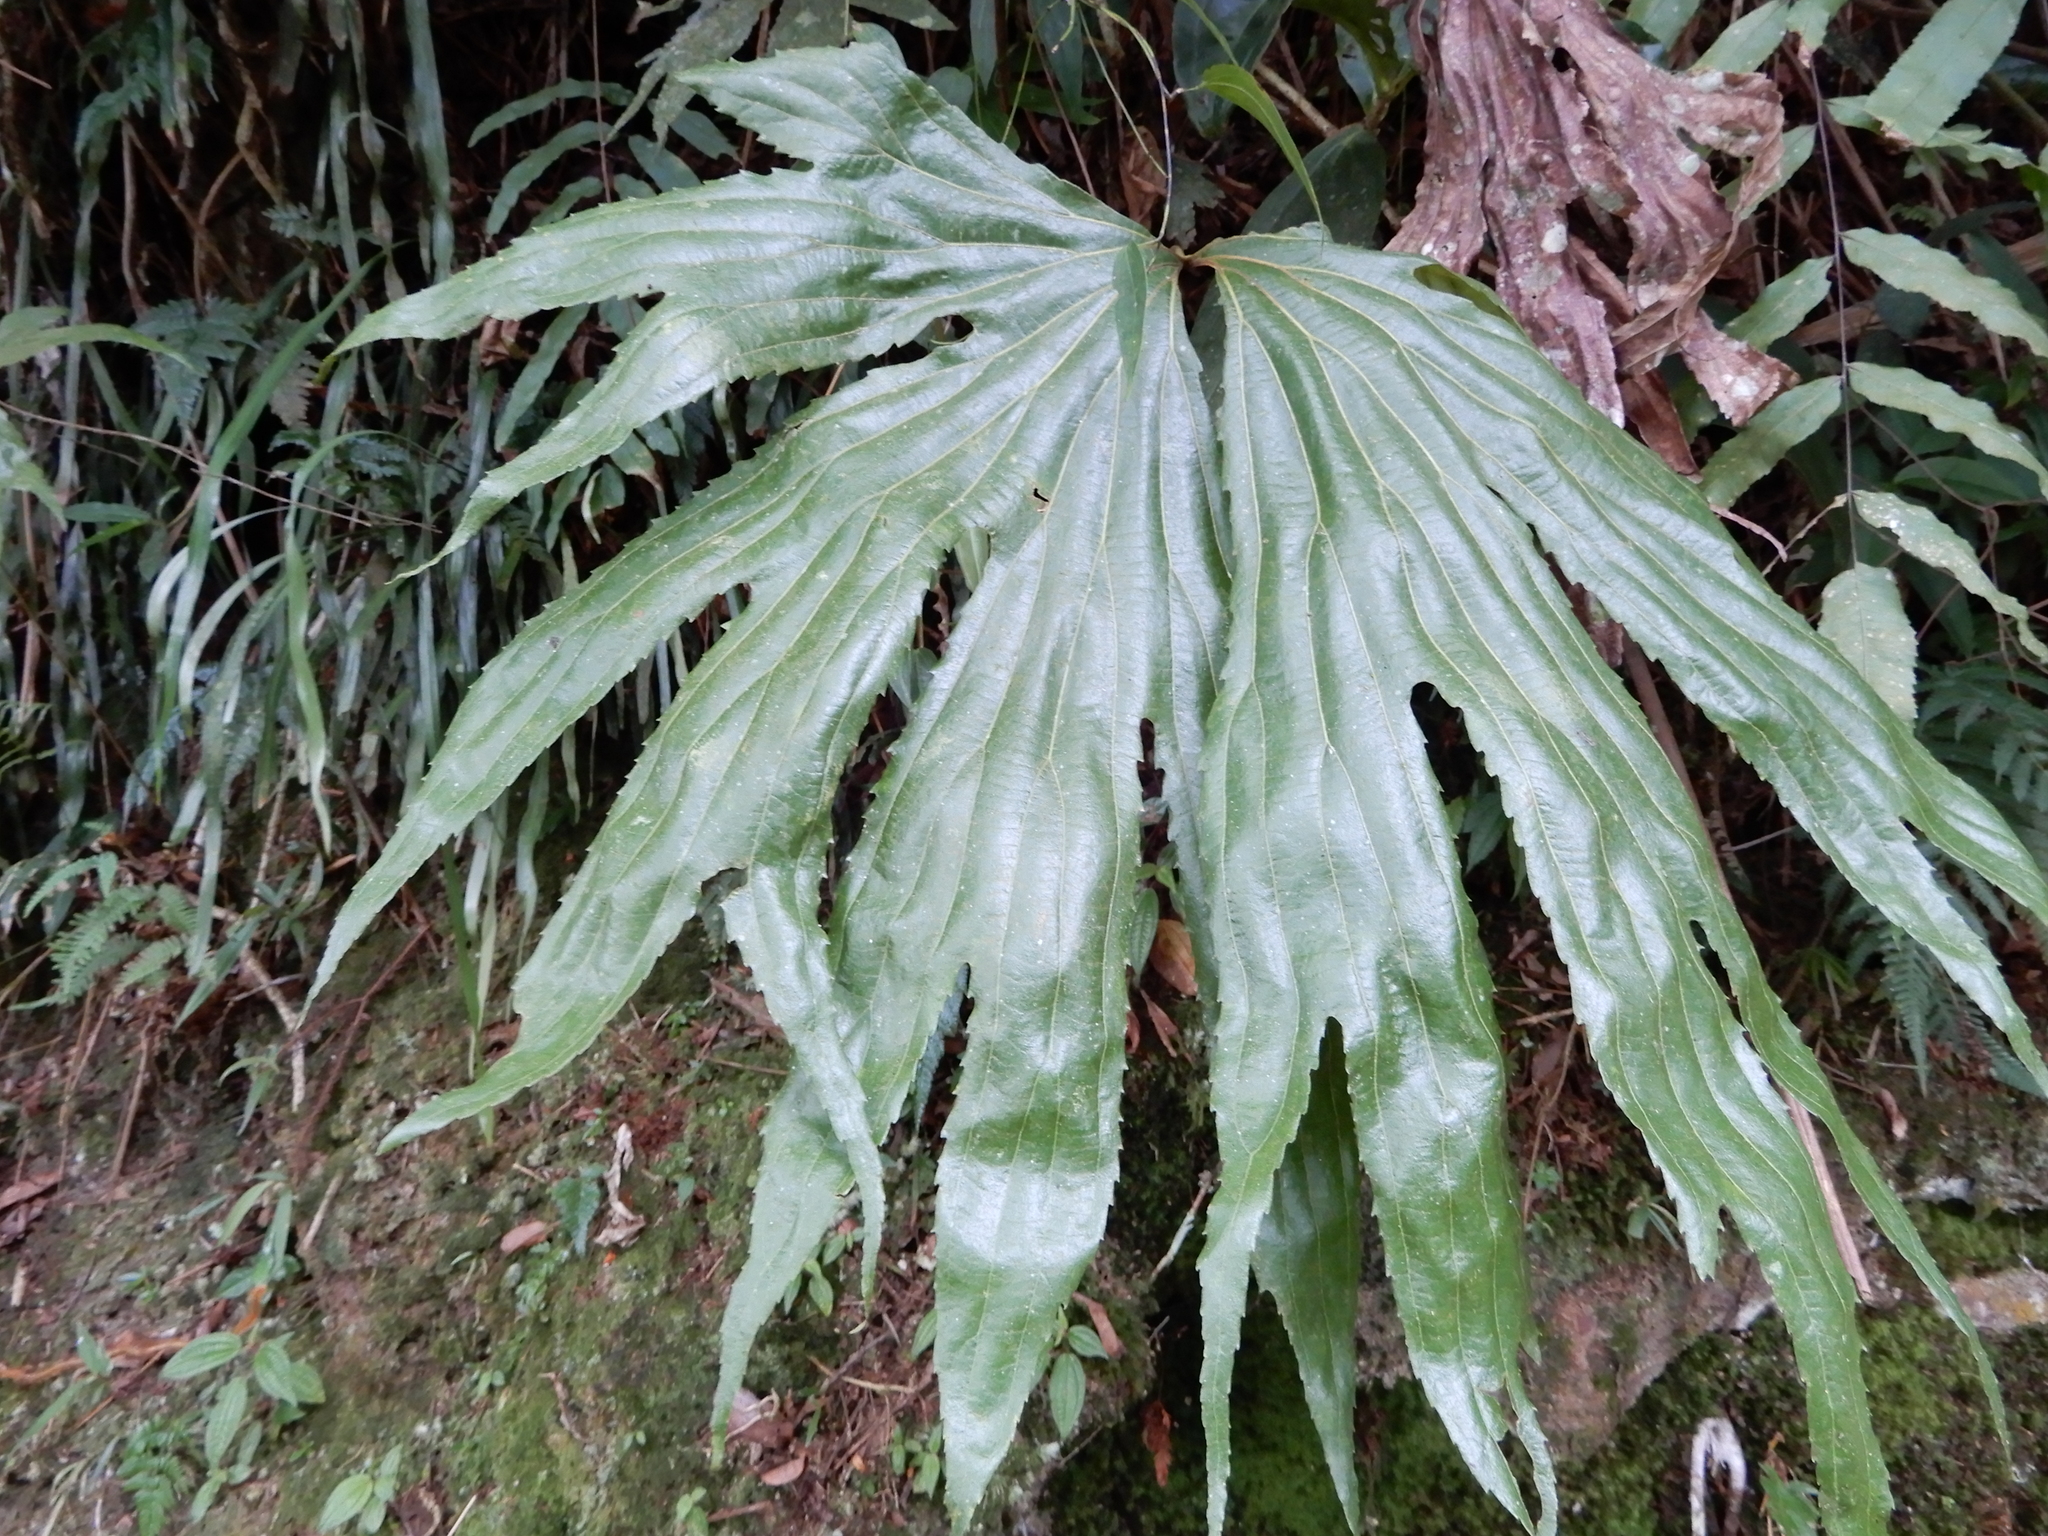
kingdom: Plantae
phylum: Tracheophyta
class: Polypodiopsida
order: Gleicheniales
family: Dipteridaceae
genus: Dipteris
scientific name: Dipteris conjugata
